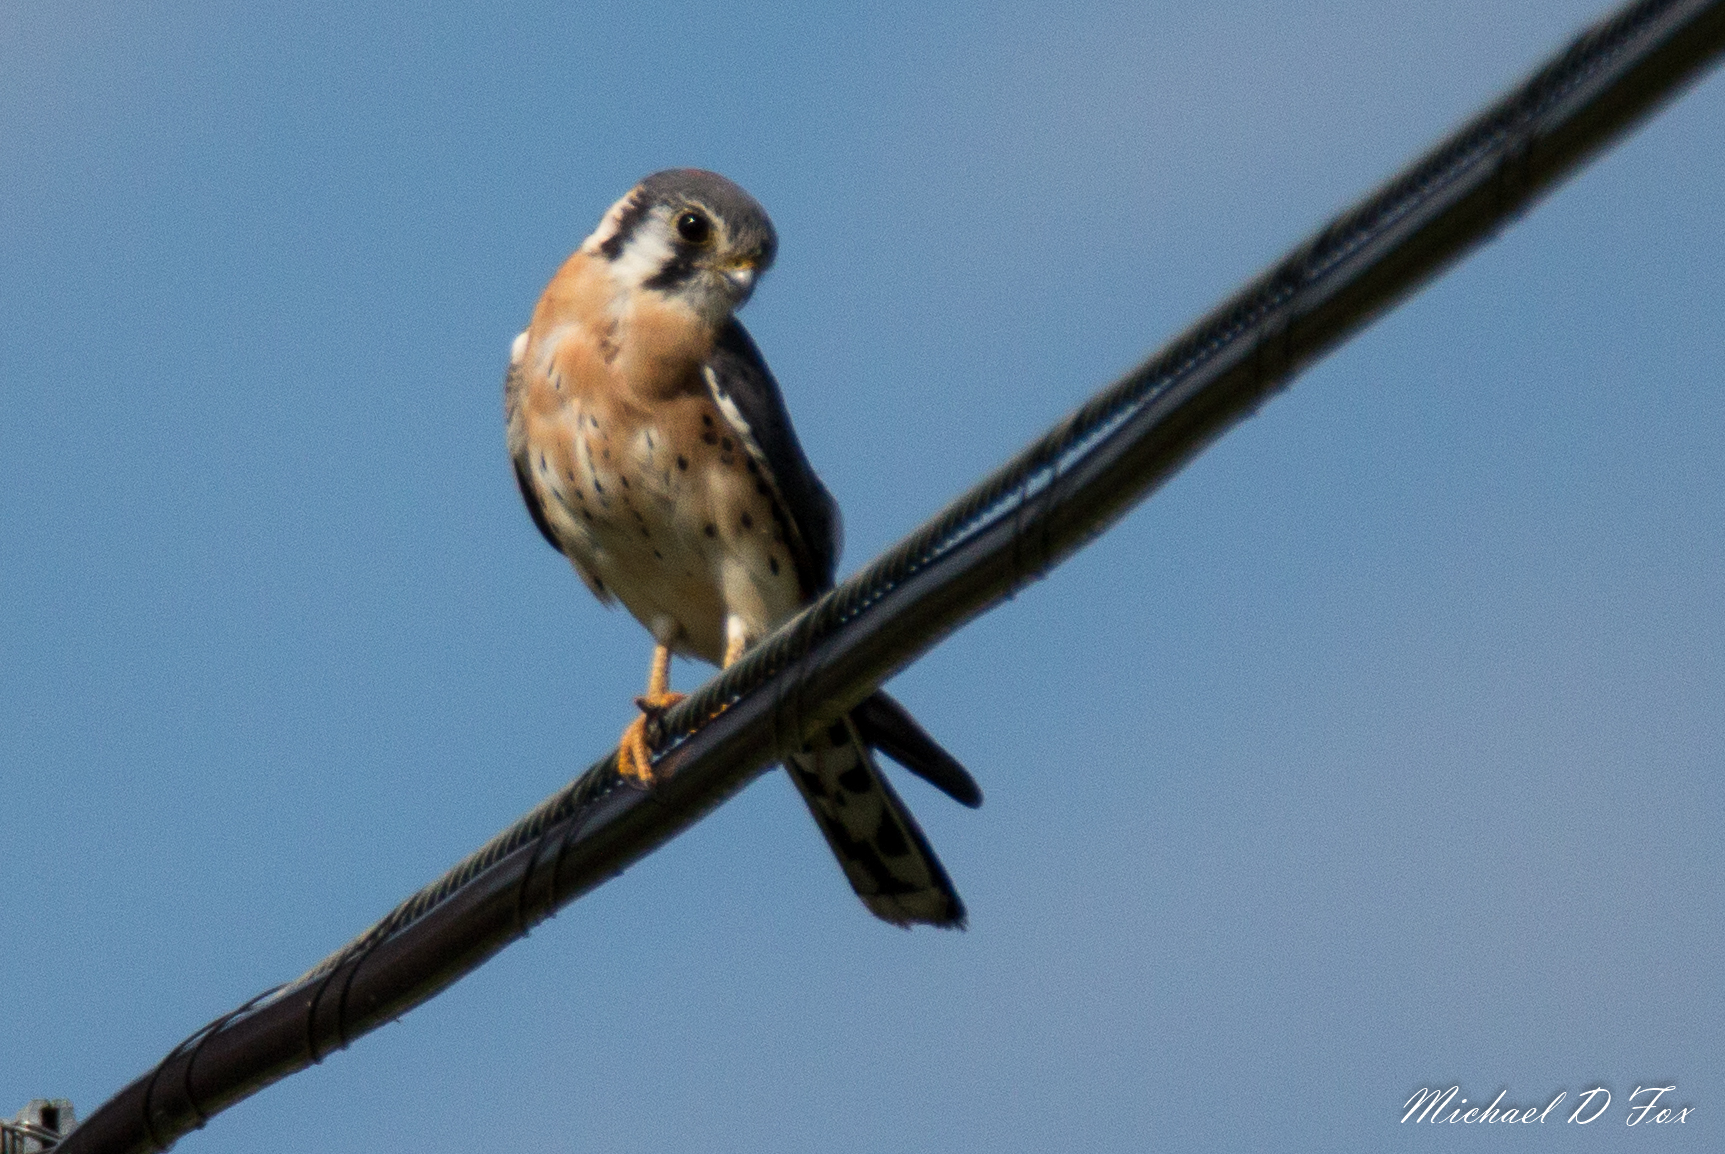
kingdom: Animalia
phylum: Chordata
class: Aves
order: Falconiformes
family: Falconidae
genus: Falco
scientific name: Falco sparverius
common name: American kestrel
